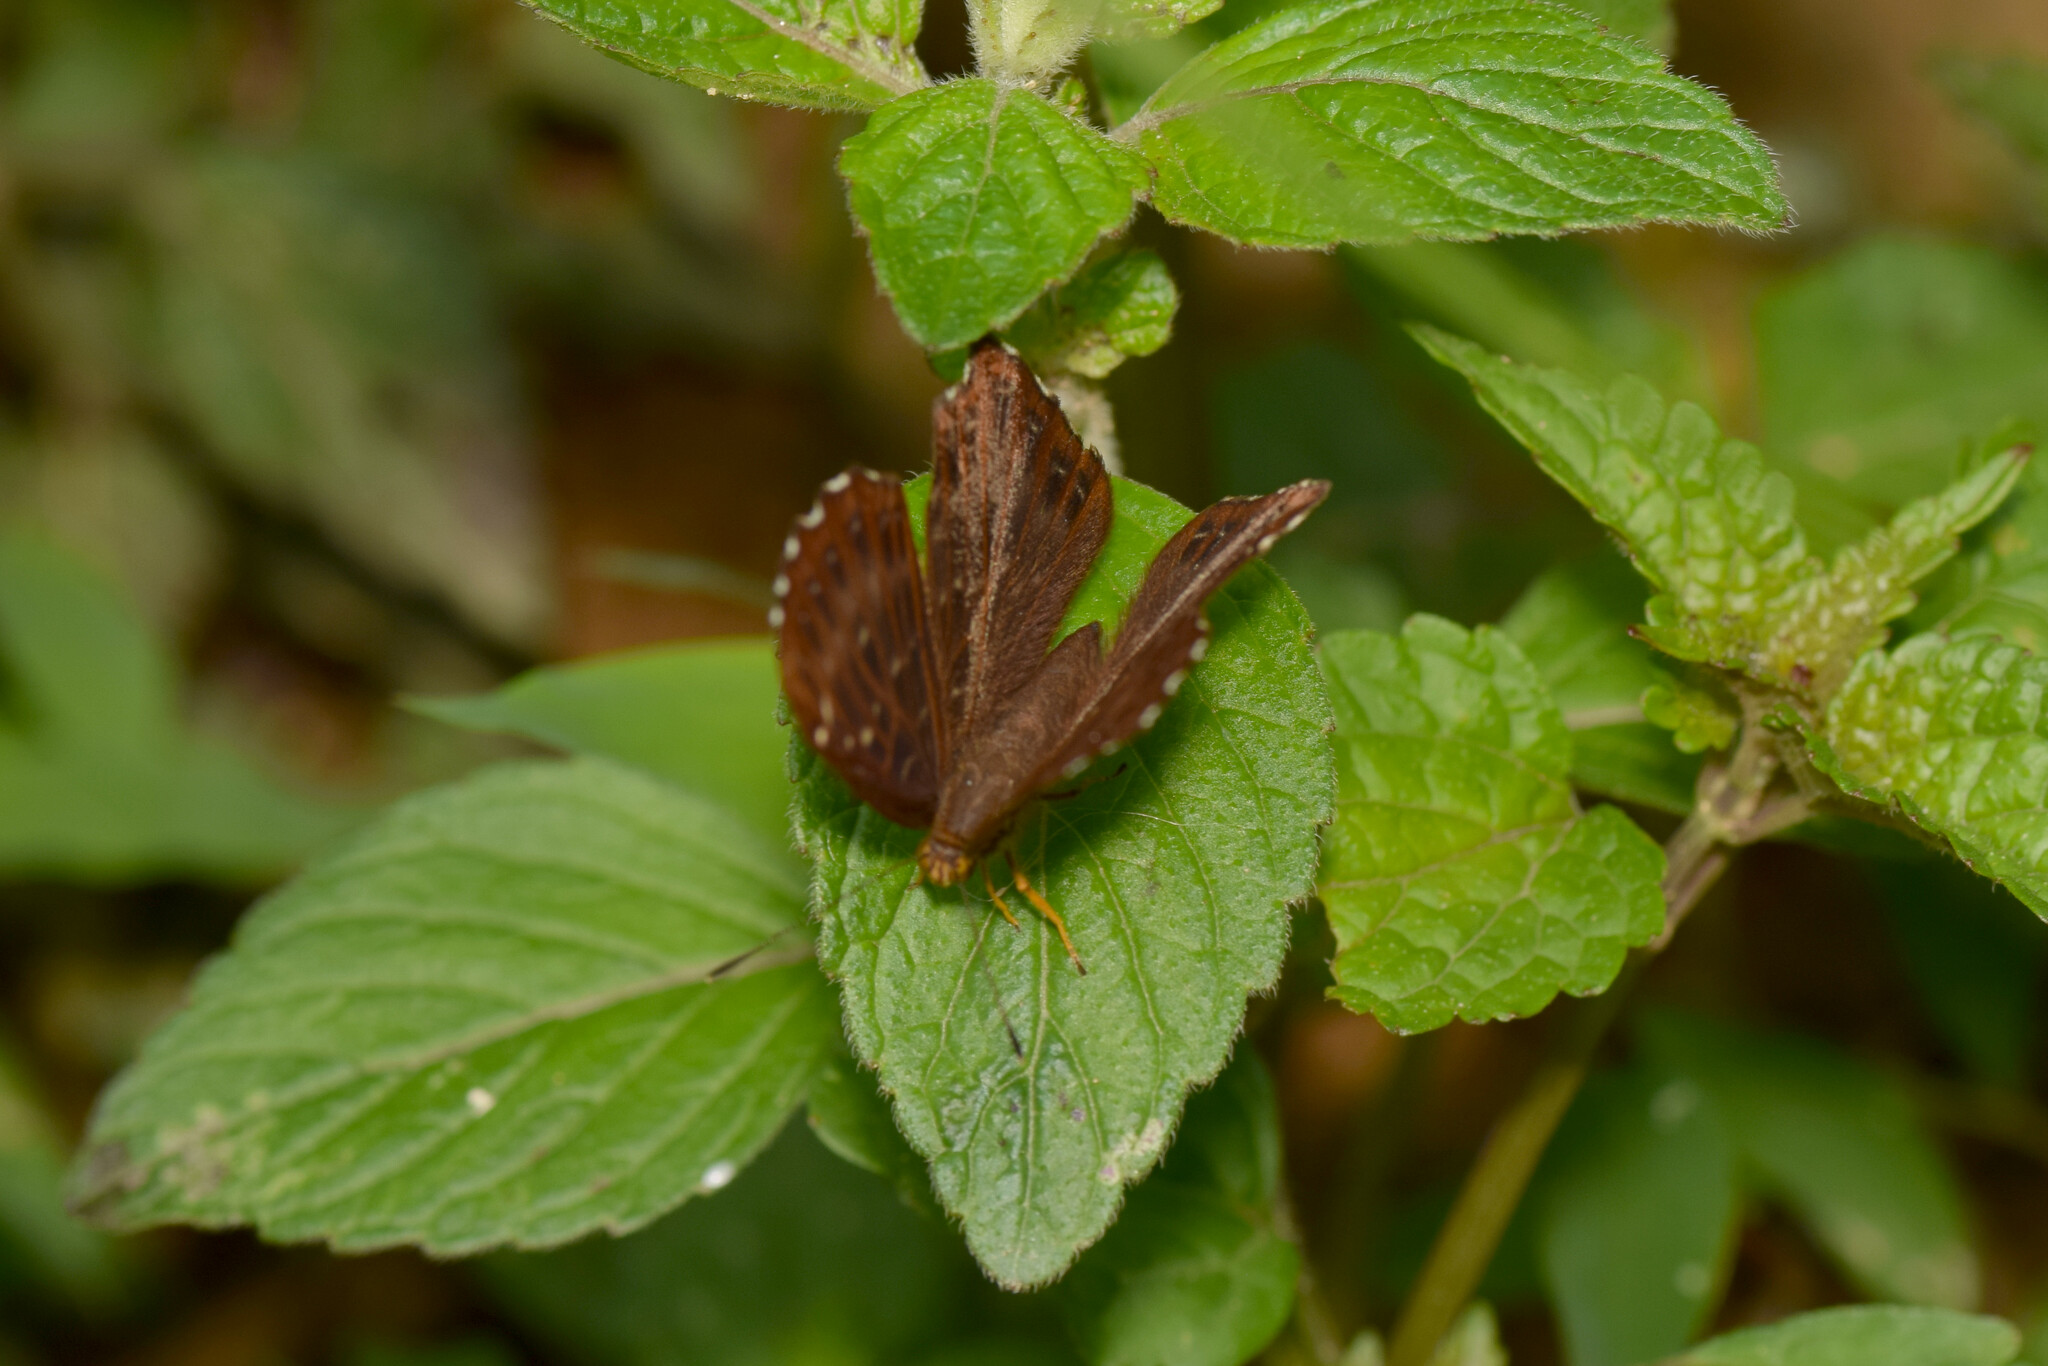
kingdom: Animalia
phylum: Arthropoda
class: Insecta
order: Lepidoptera
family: Riodinidae
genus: Zemeros
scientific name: Zemeros flegyas
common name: Punchinello
